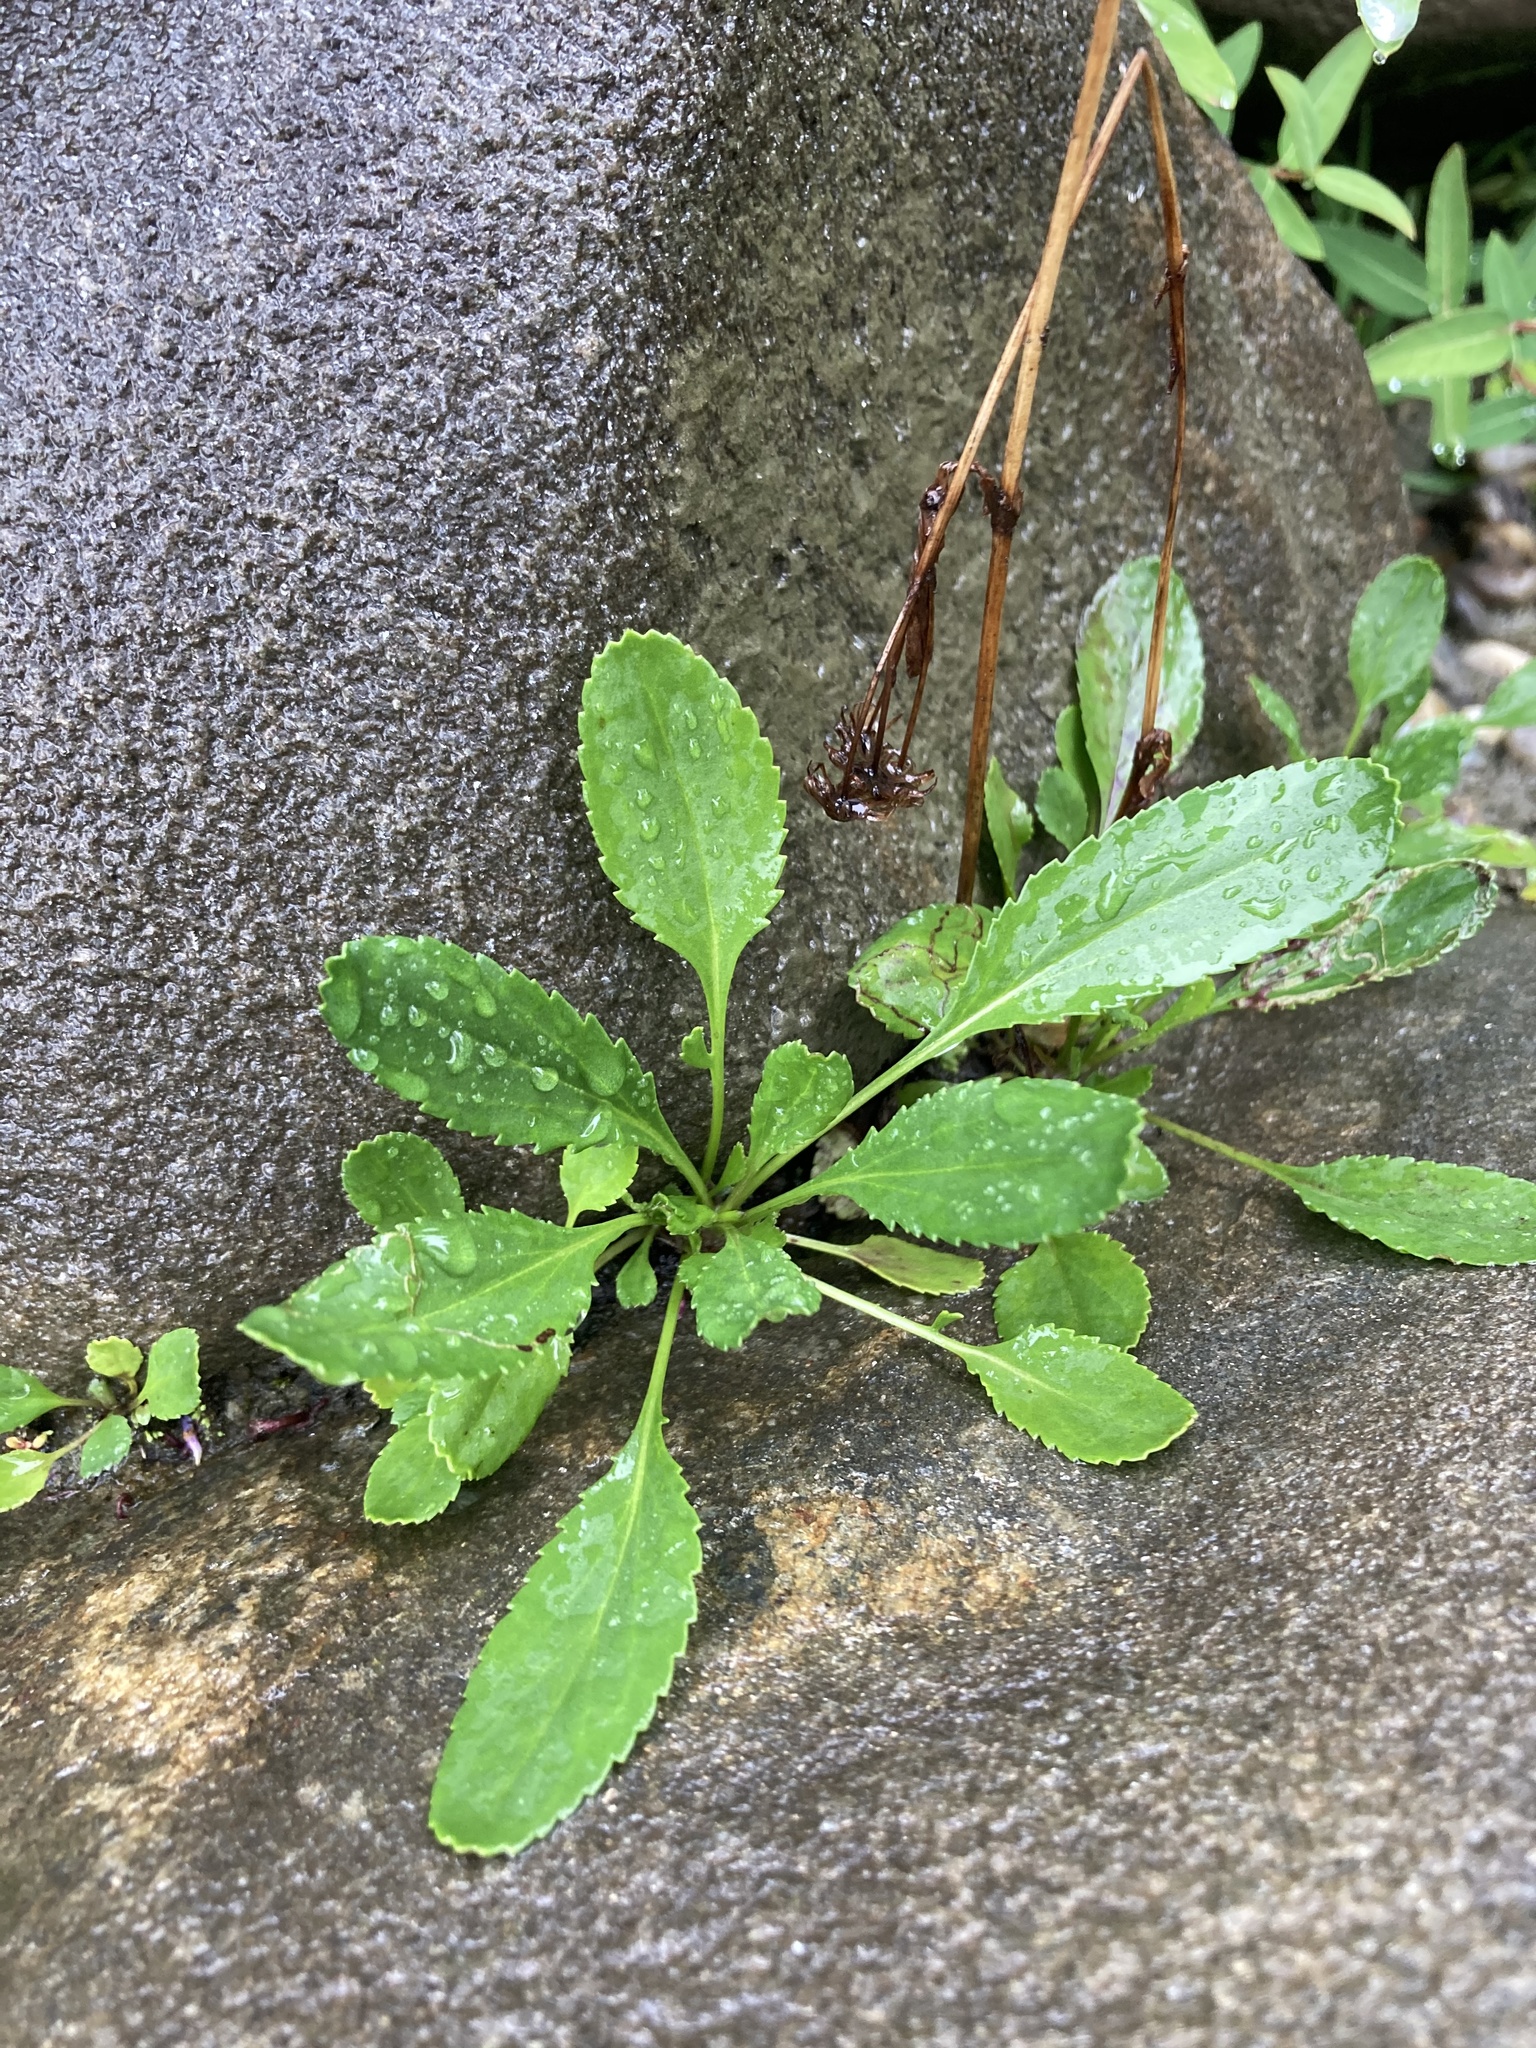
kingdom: Plantae
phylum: Tracheophyta
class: Magnoliopsida
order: Asterales
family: Asteraceae
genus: Packera
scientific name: Packera paupercula
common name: Balsam groundsel
